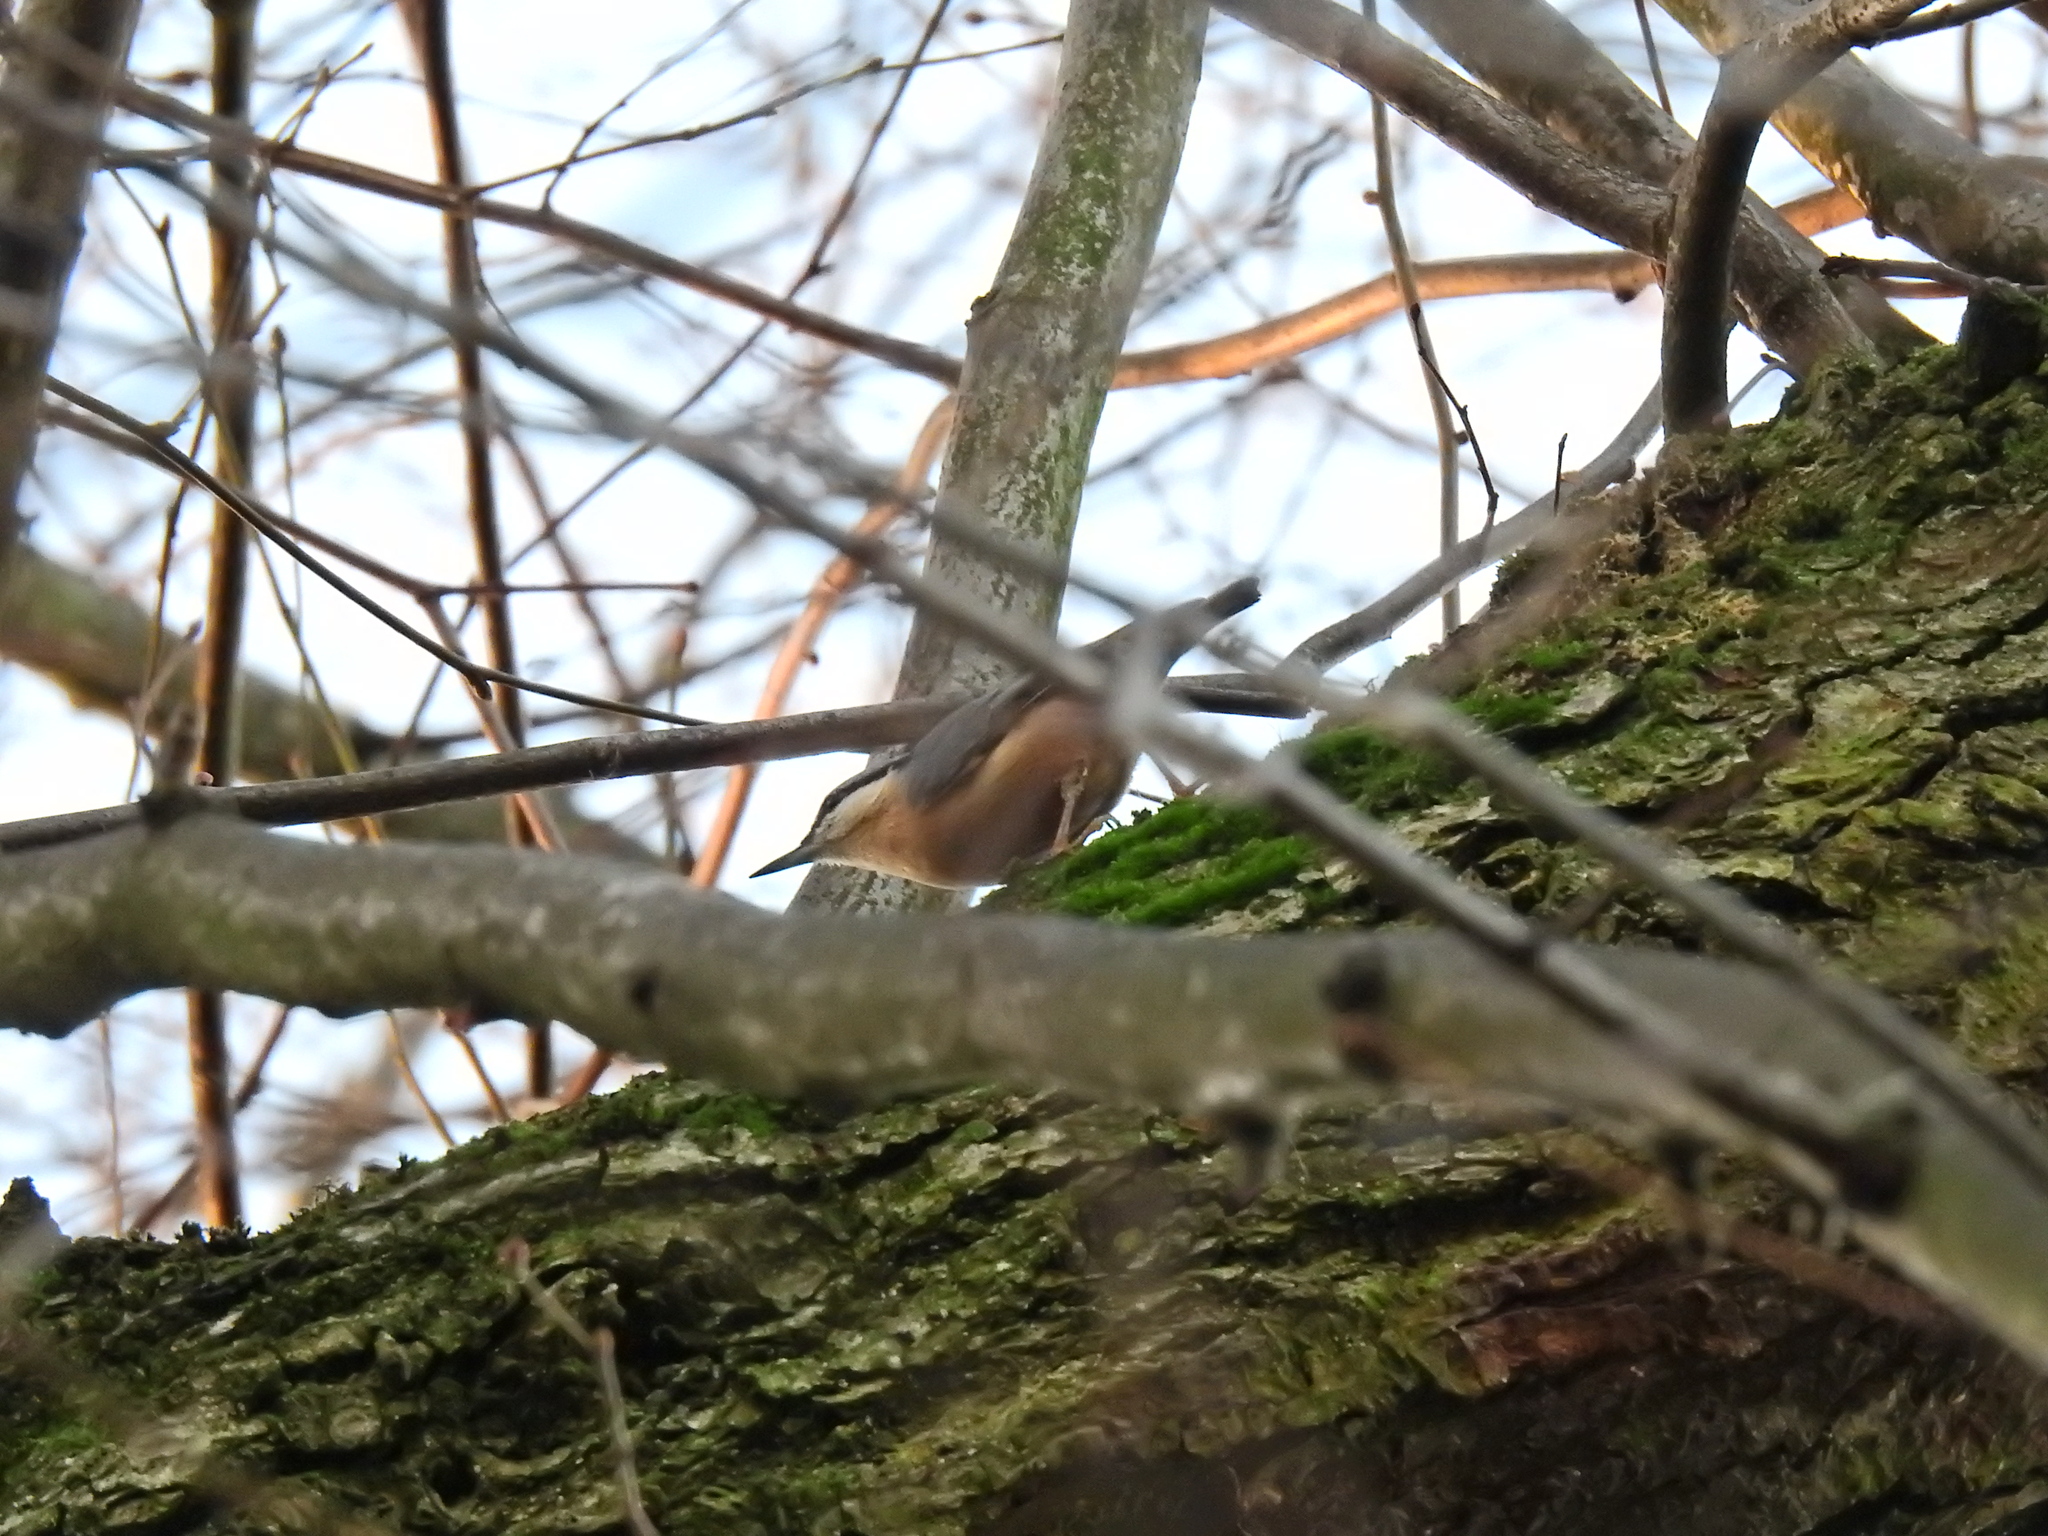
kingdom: Animalia
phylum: Chordata
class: Aves
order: Passeriformes
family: Sittidae
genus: Sitta
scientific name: Sitta europaea
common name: Eurasian nuthatch
